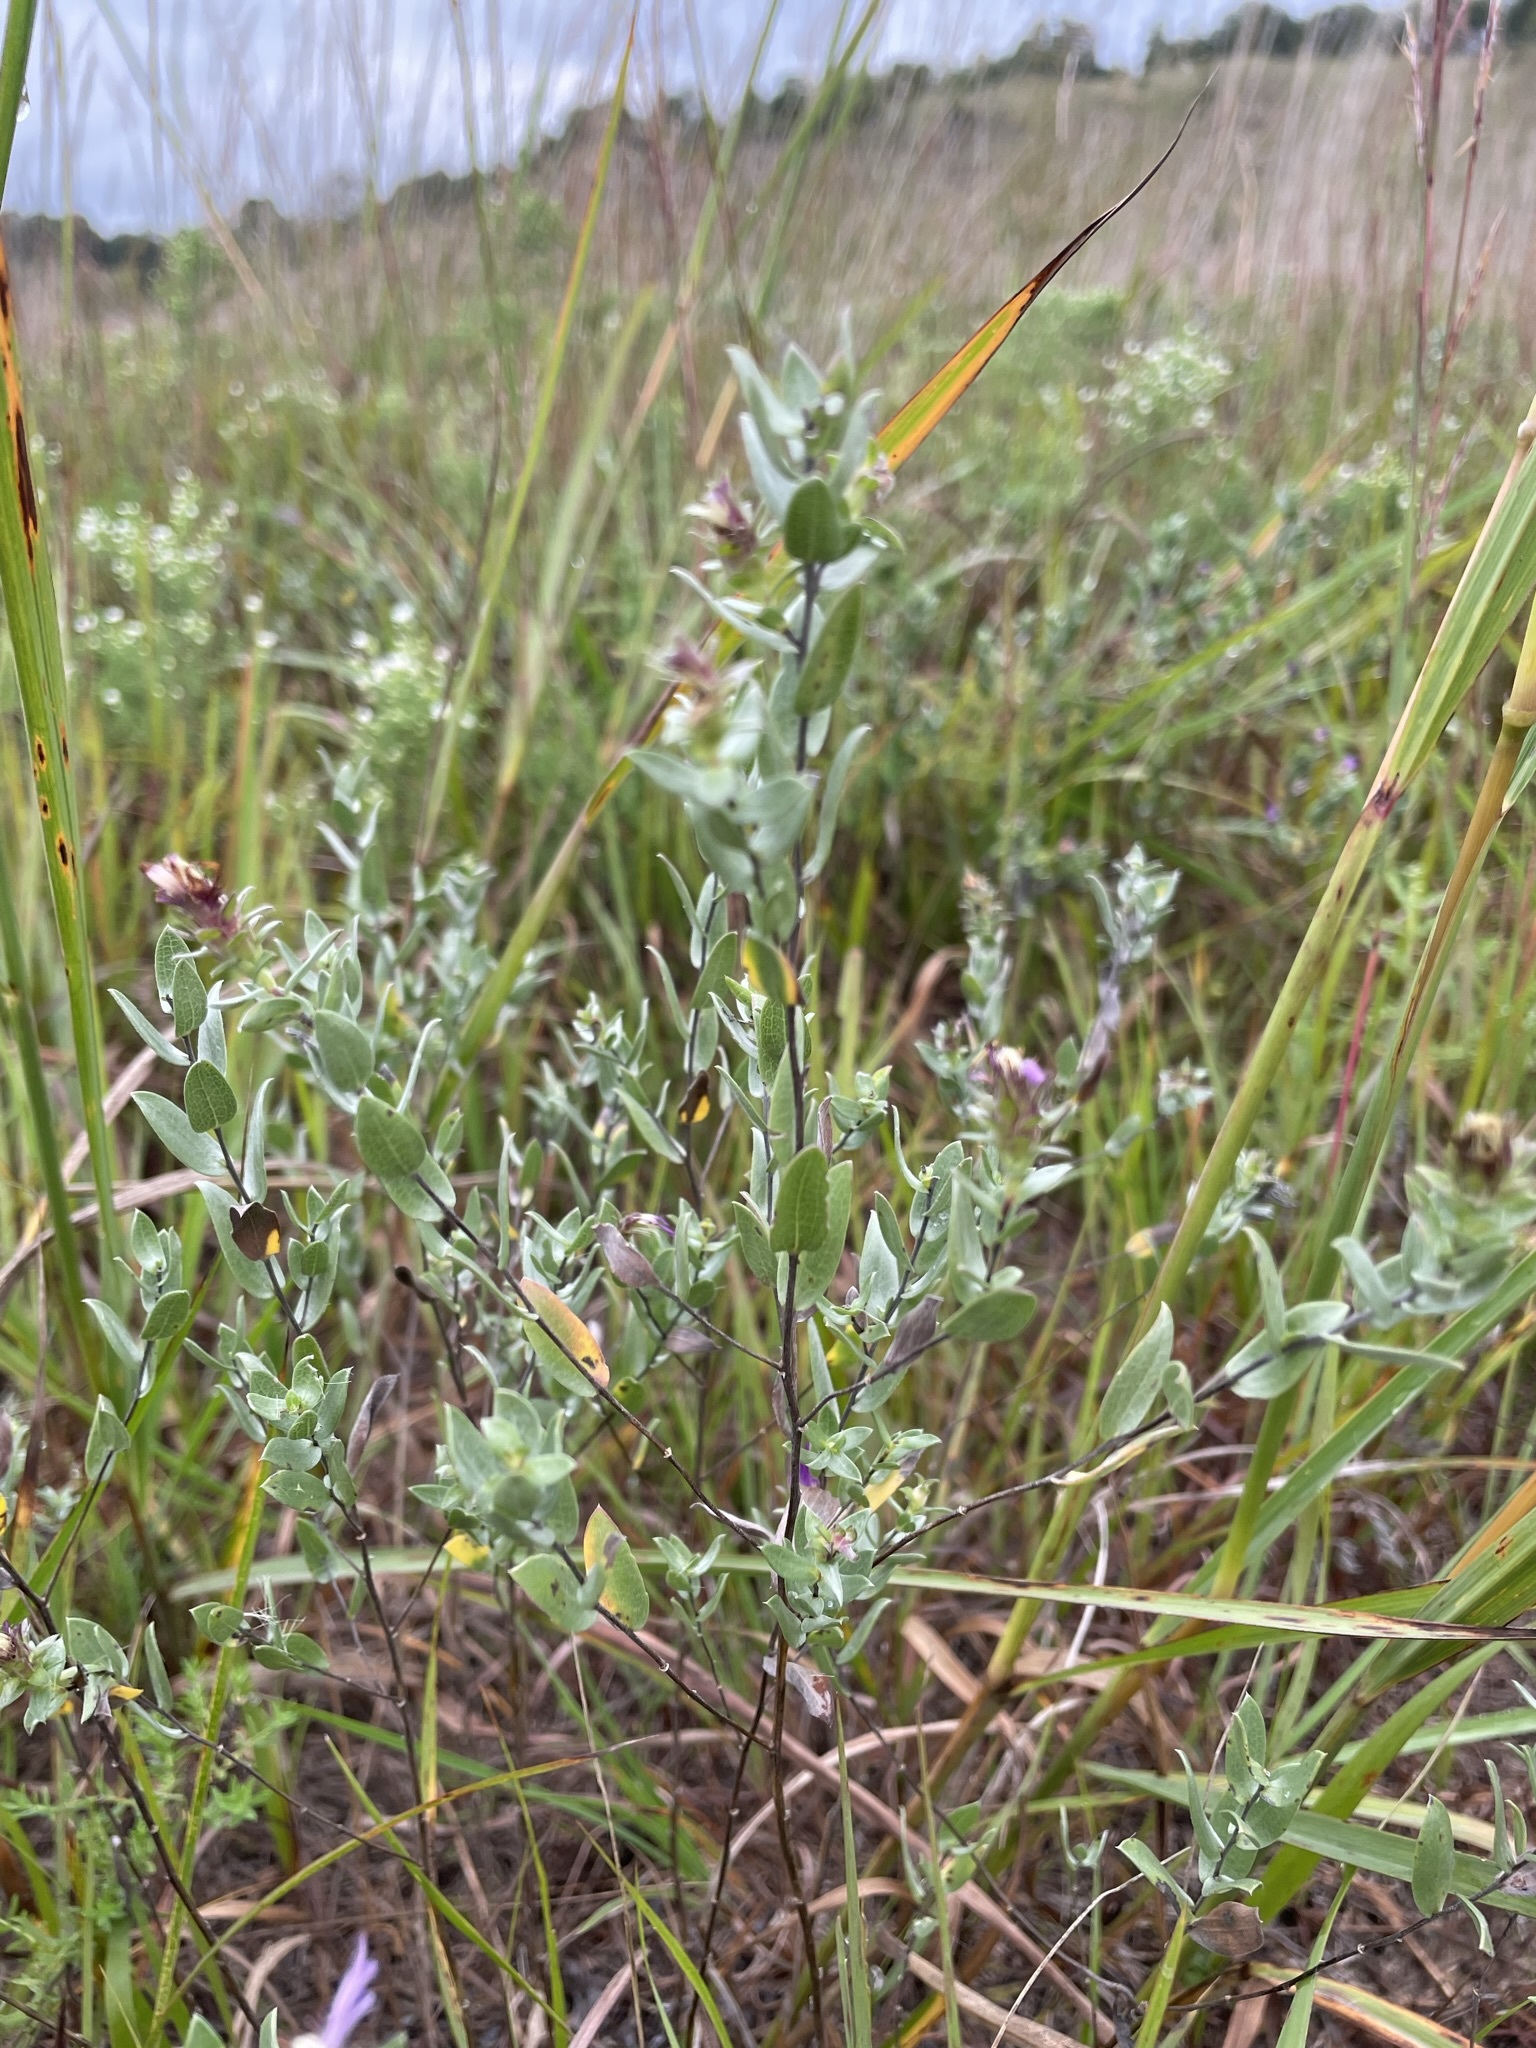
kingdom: Plantae
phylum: Tracheophyta
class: Magnoliopsida
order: Asterales
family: Asteraceae
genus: Symphyotrichum
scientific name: Symphyotrichum sericeum
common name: Silky aster
